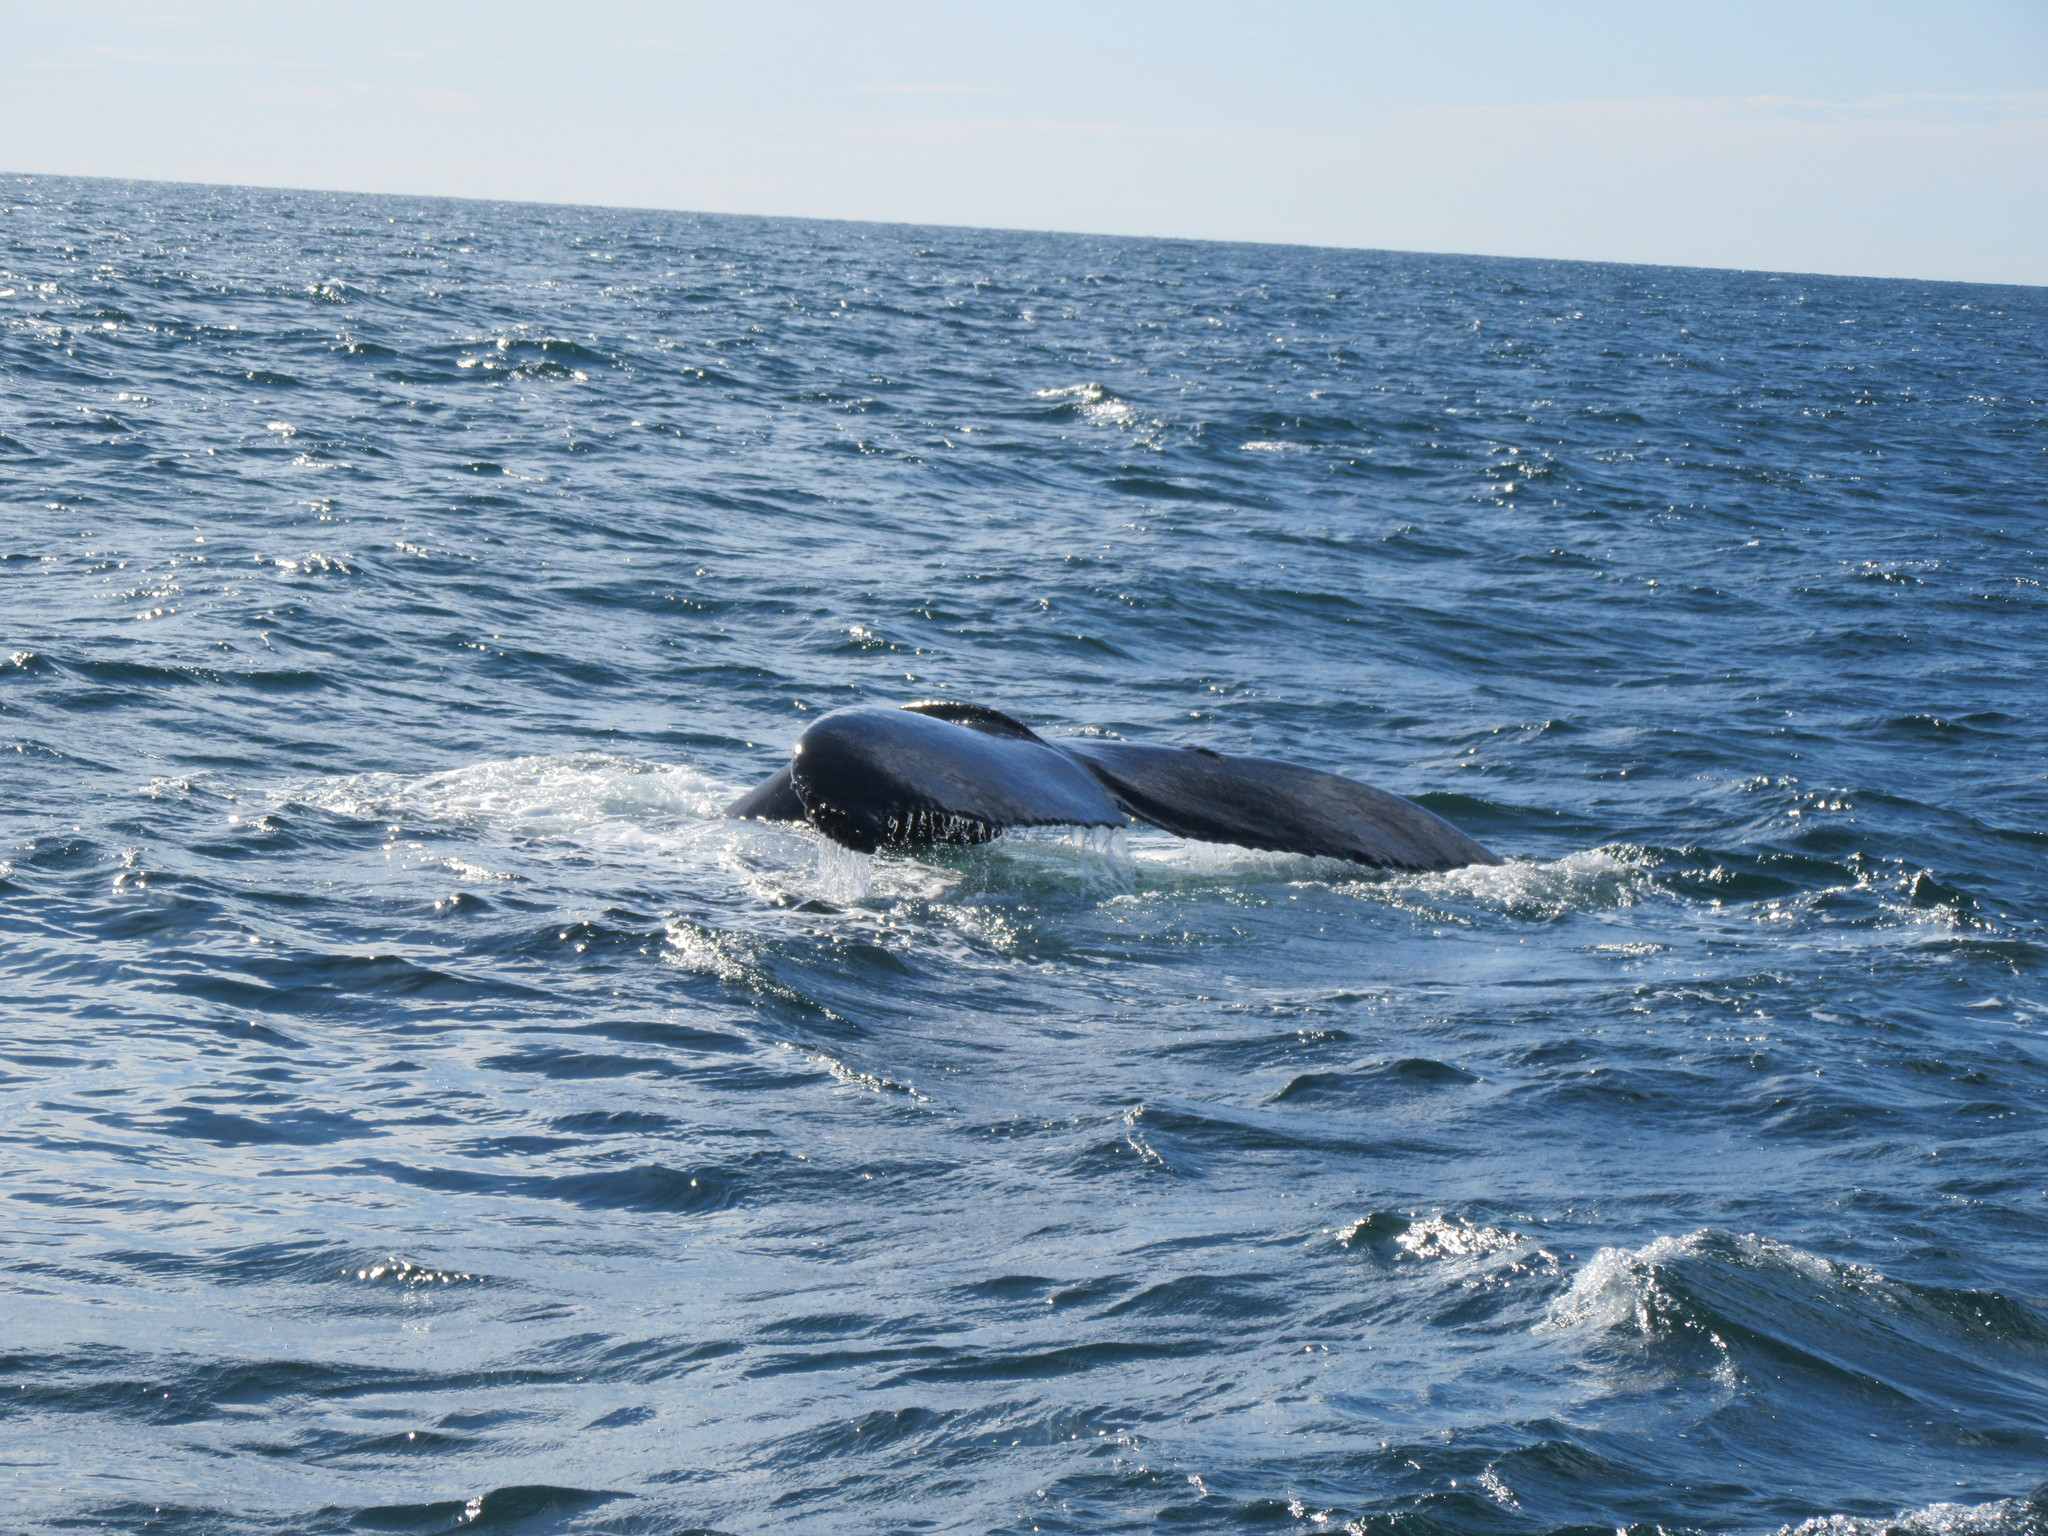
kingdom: Animalia
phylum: Chordata
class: Mammalia
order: Cetacea
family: Balaenopteridae
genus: Megaptera
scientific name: Megaptera novaeangliae
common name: Humpback whale
